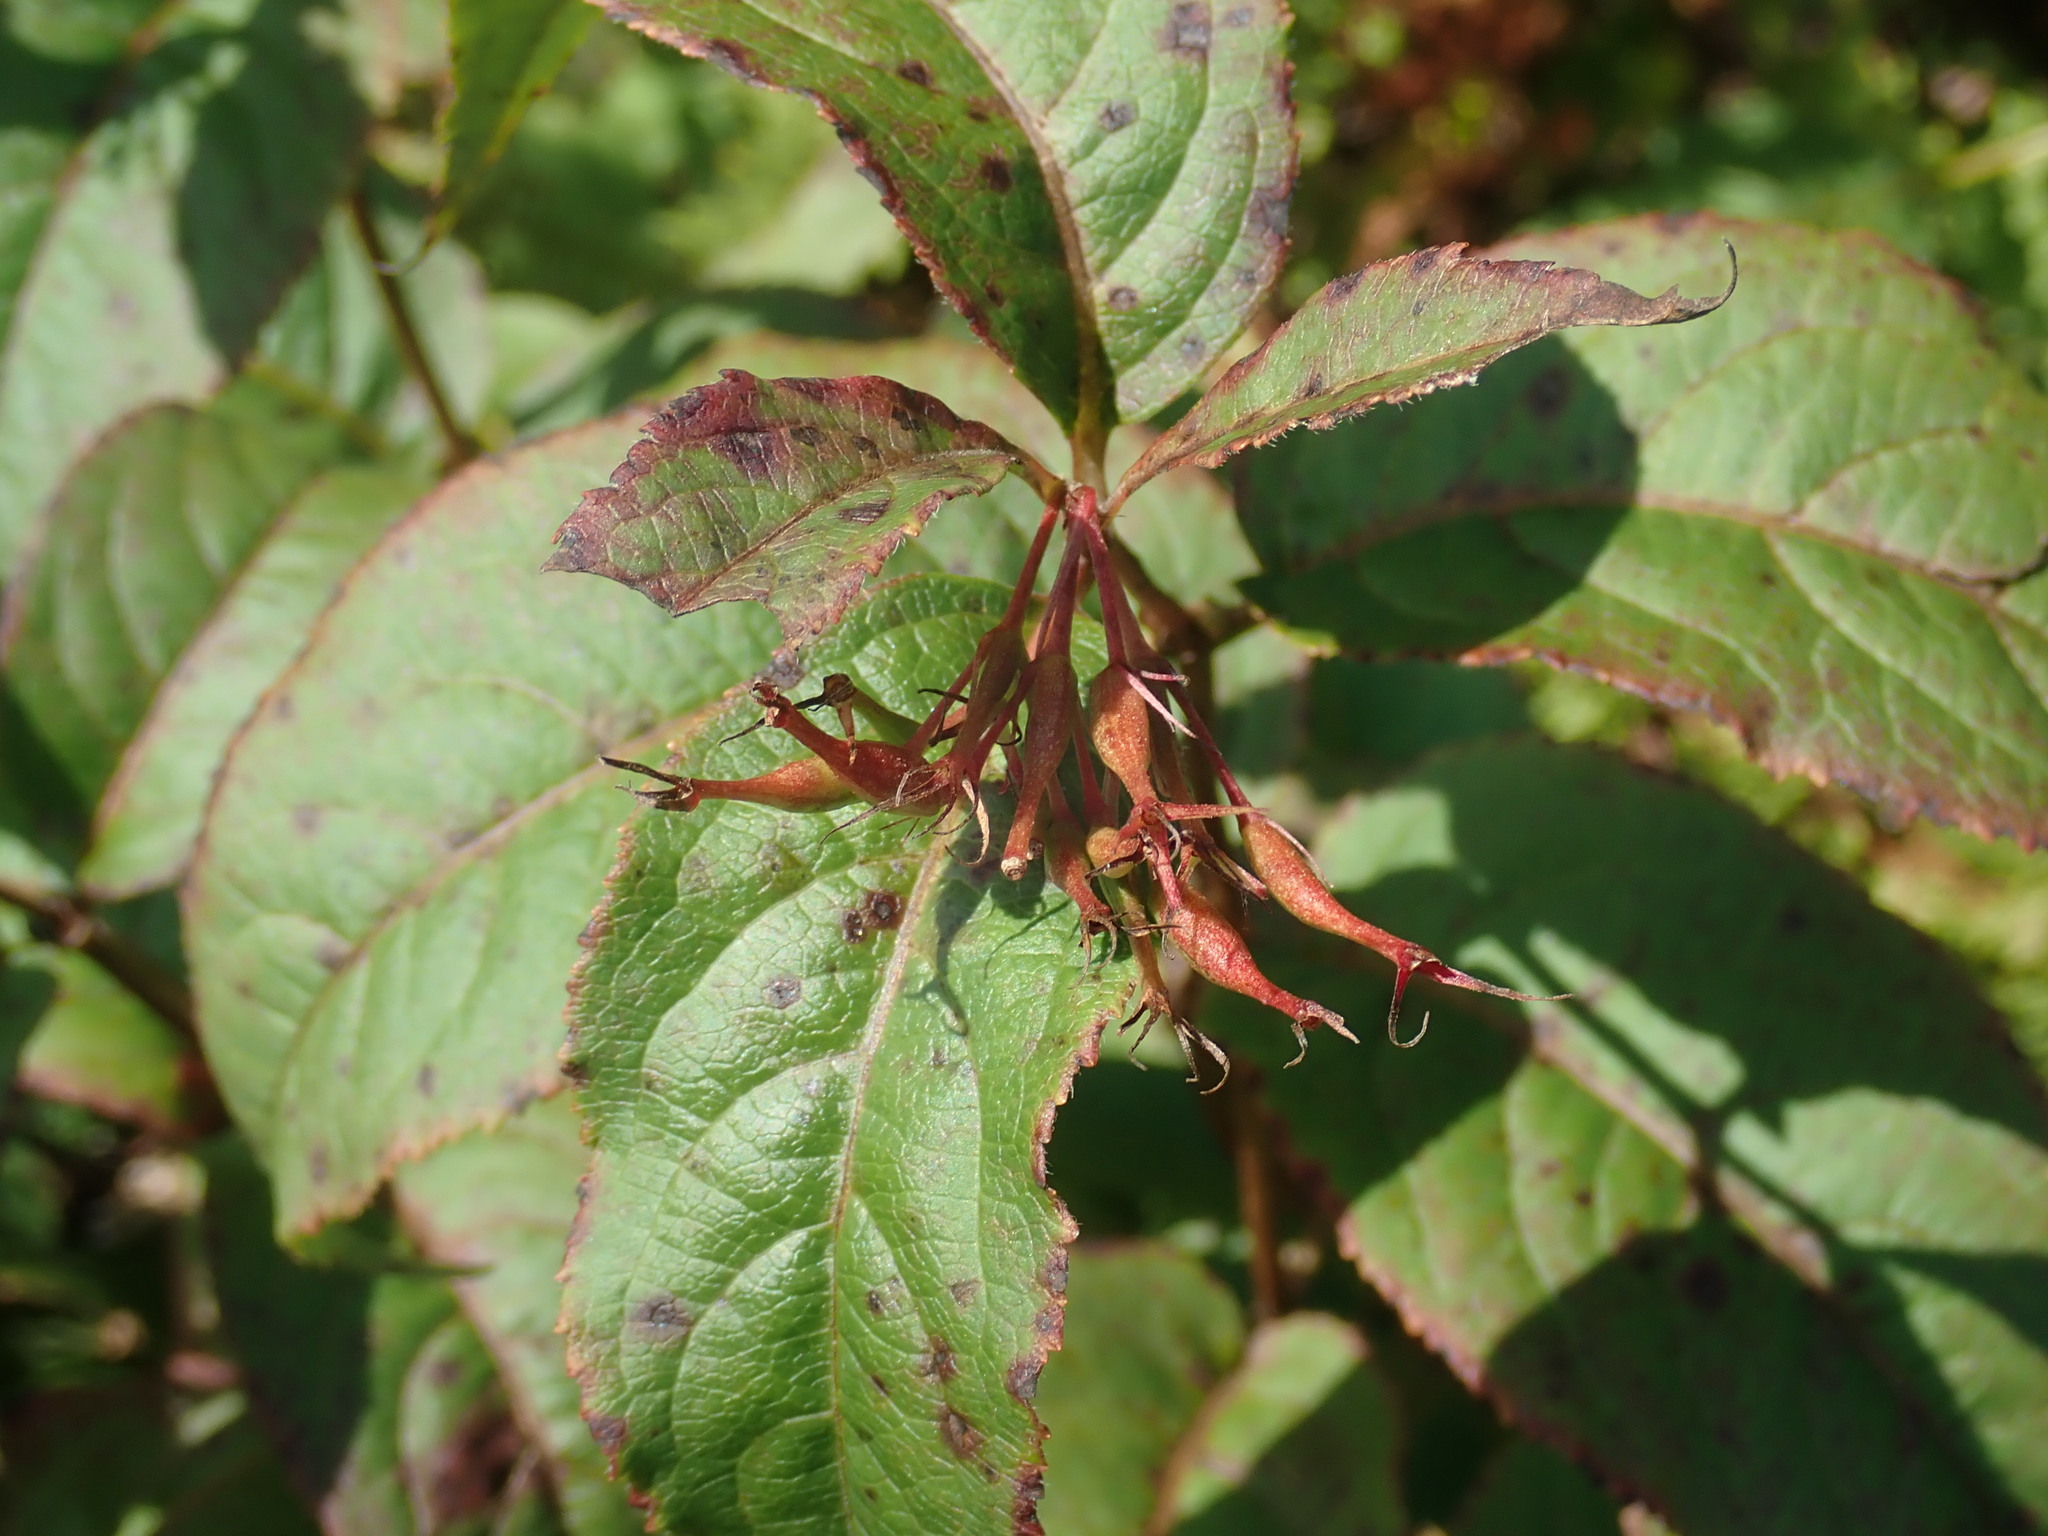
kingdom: Plantae
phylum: Tracheophyta
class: Magnoliopsida
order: Dipsacales
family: Caprifoliaceae
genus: Diervilla
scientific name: Diervilla lonicera
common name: Bush-honeysuckle
